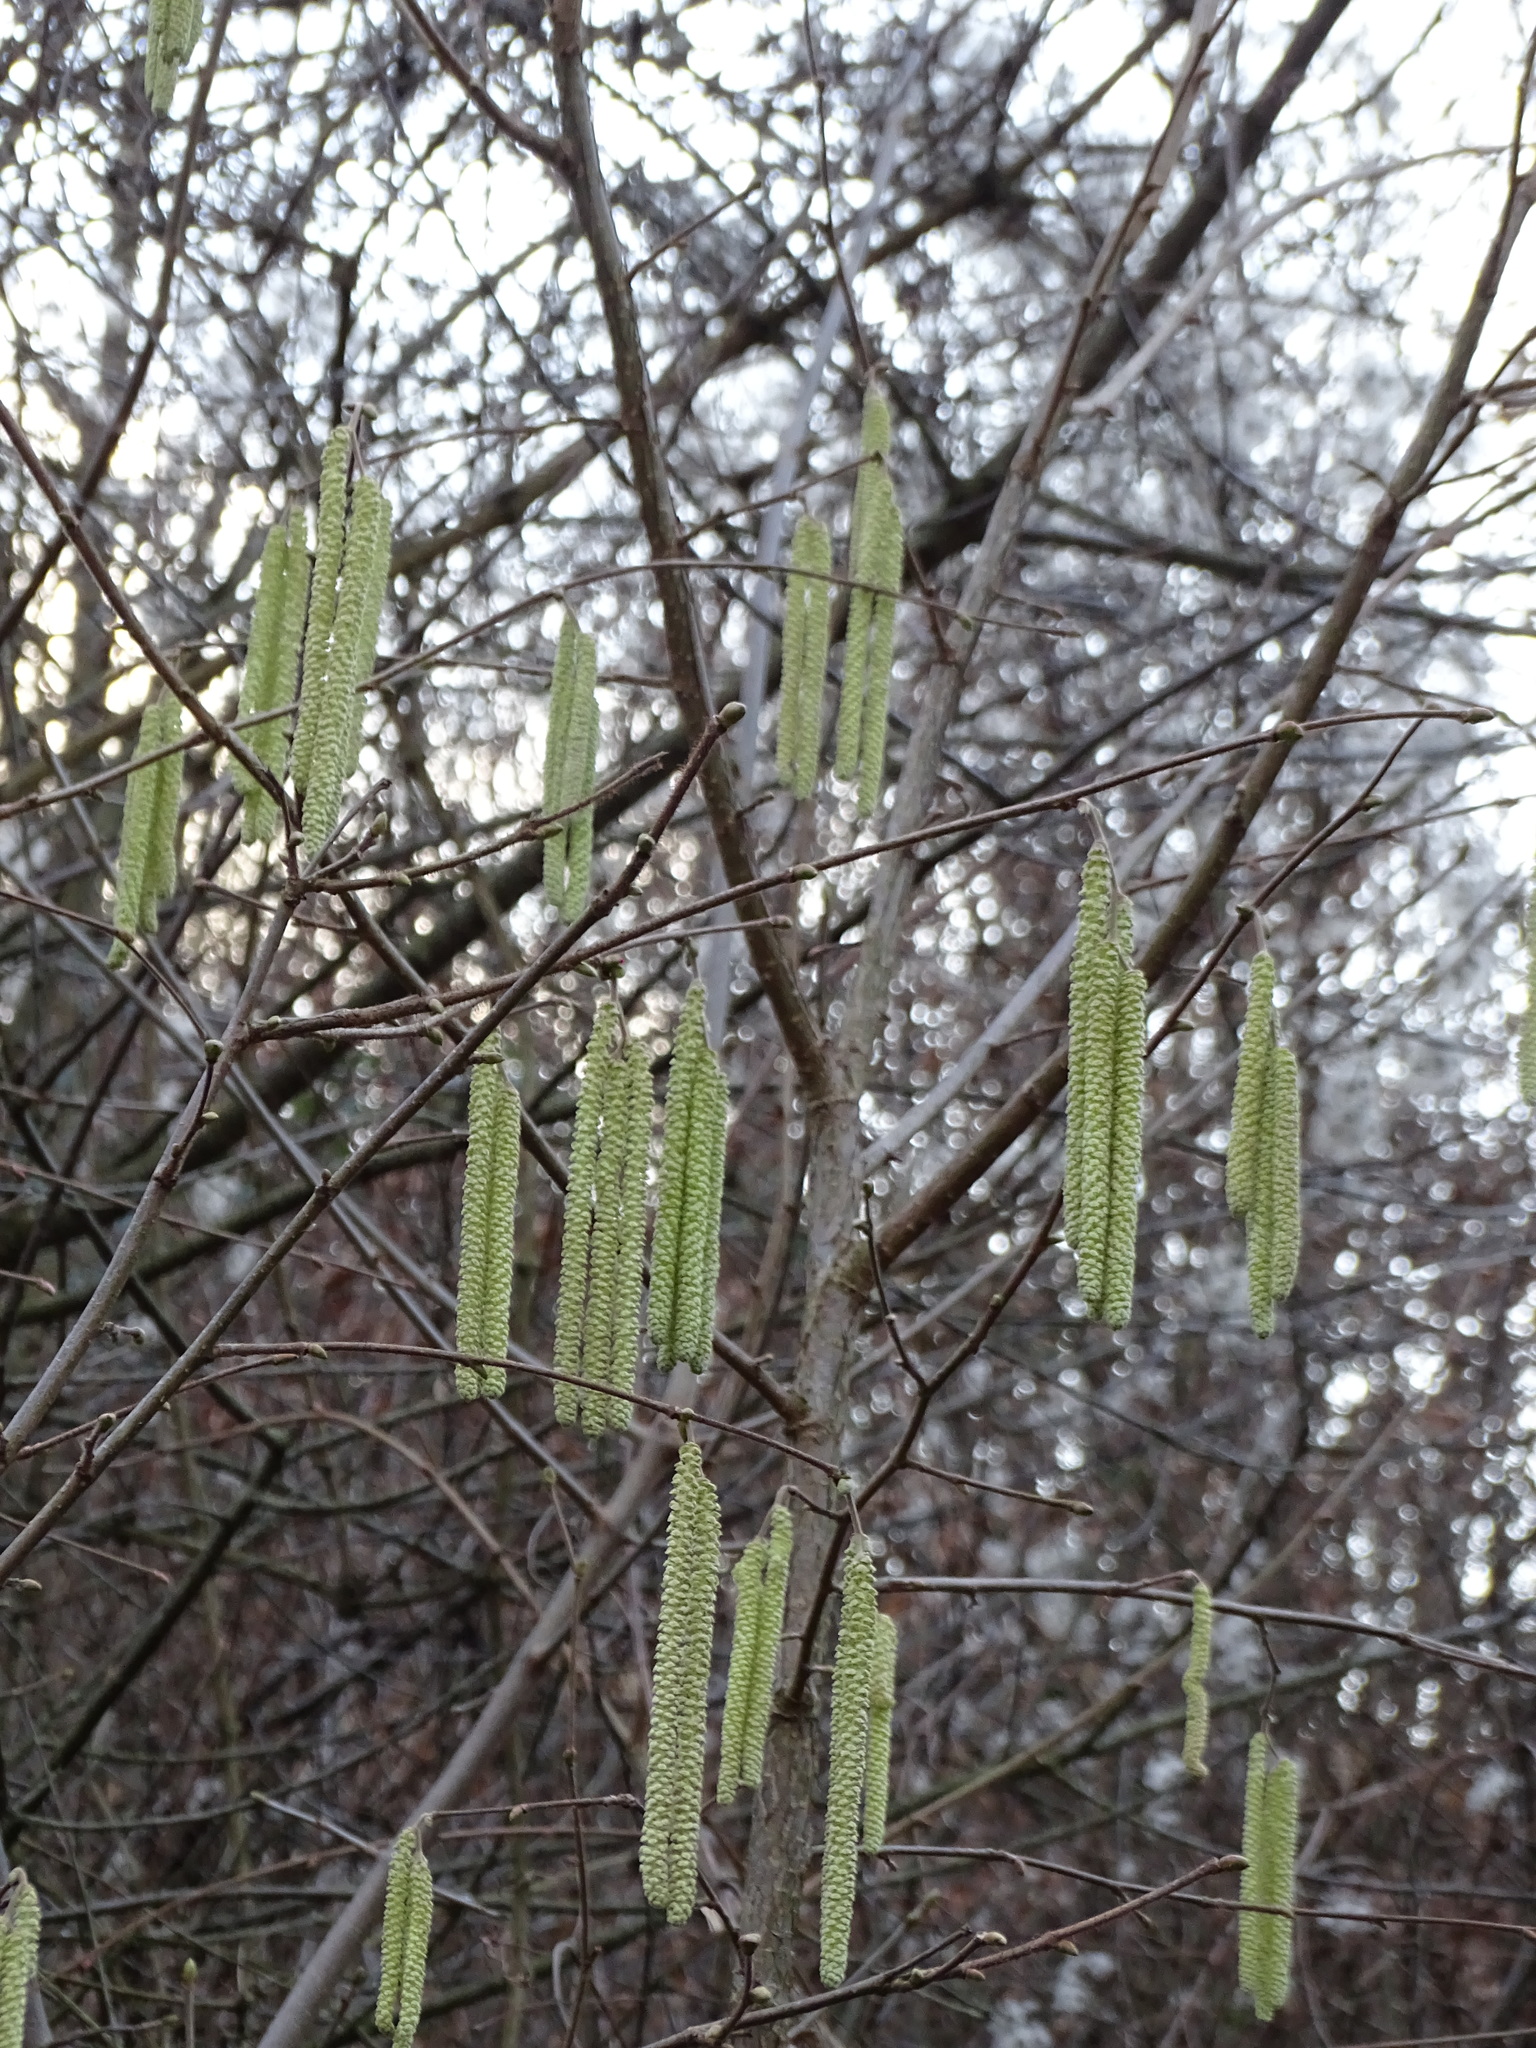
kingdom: Plantae
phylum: Tracheophyta
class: Magnoliopsida
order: Fagales
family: Betulaceae
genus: Corylus
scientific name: Corylus avellana
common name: European hazel
